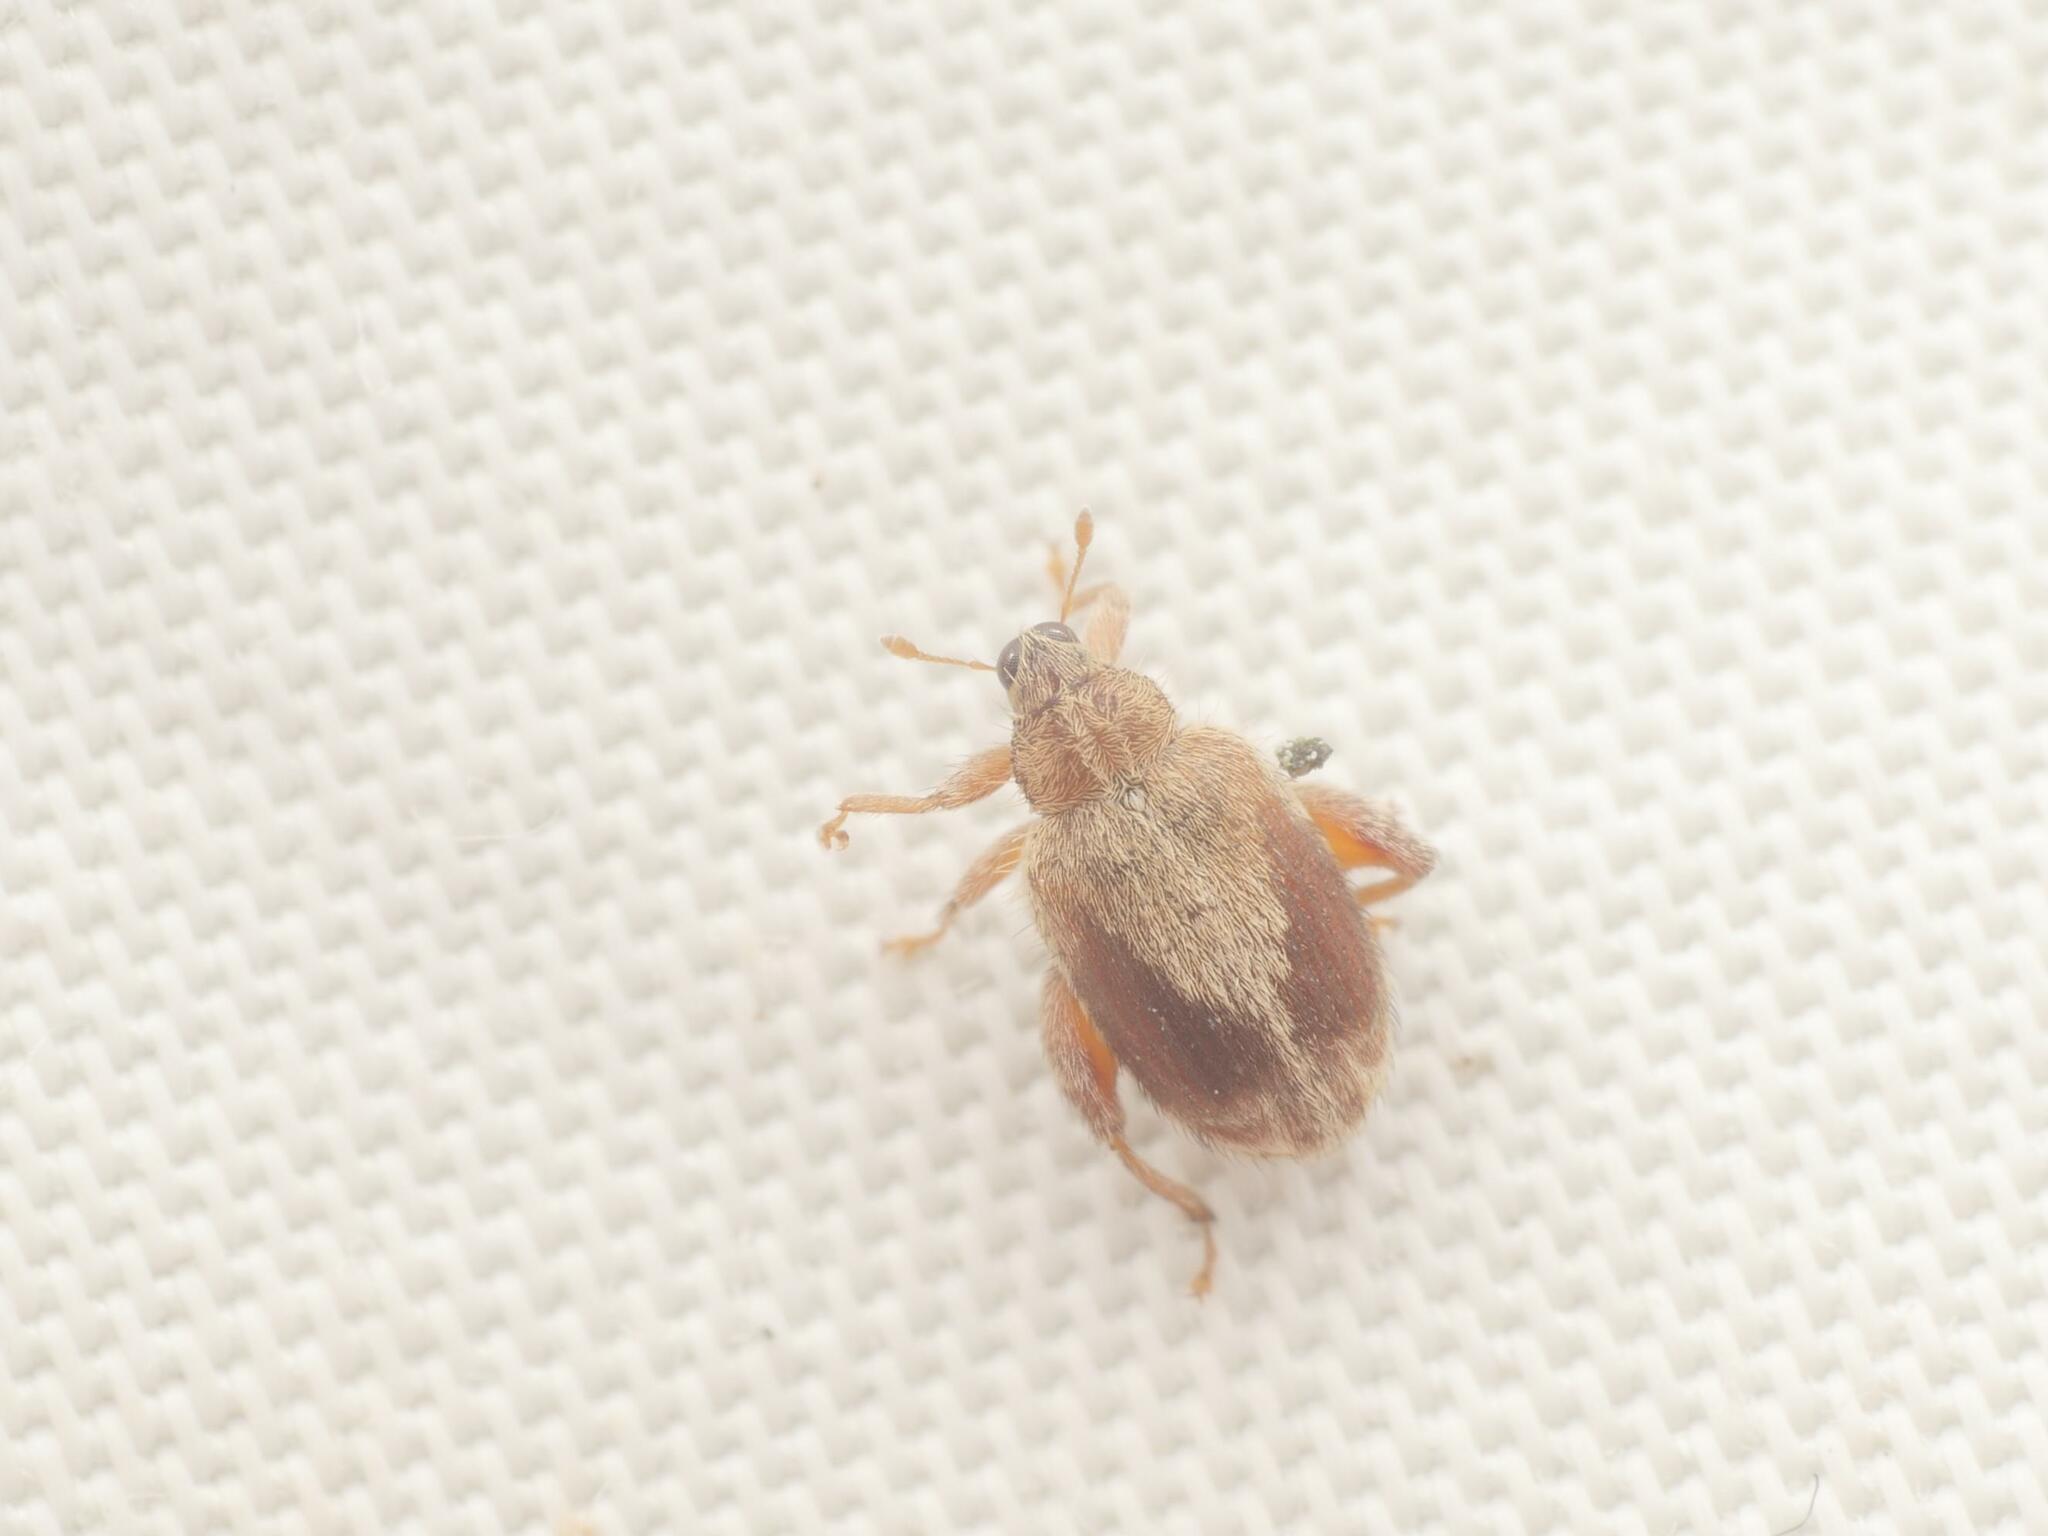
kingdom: Animalia
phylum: Arthropoda
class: Insecta
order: Coleoptera
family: Curculionidae
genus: Orchestes
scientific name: Orchestes quercus
